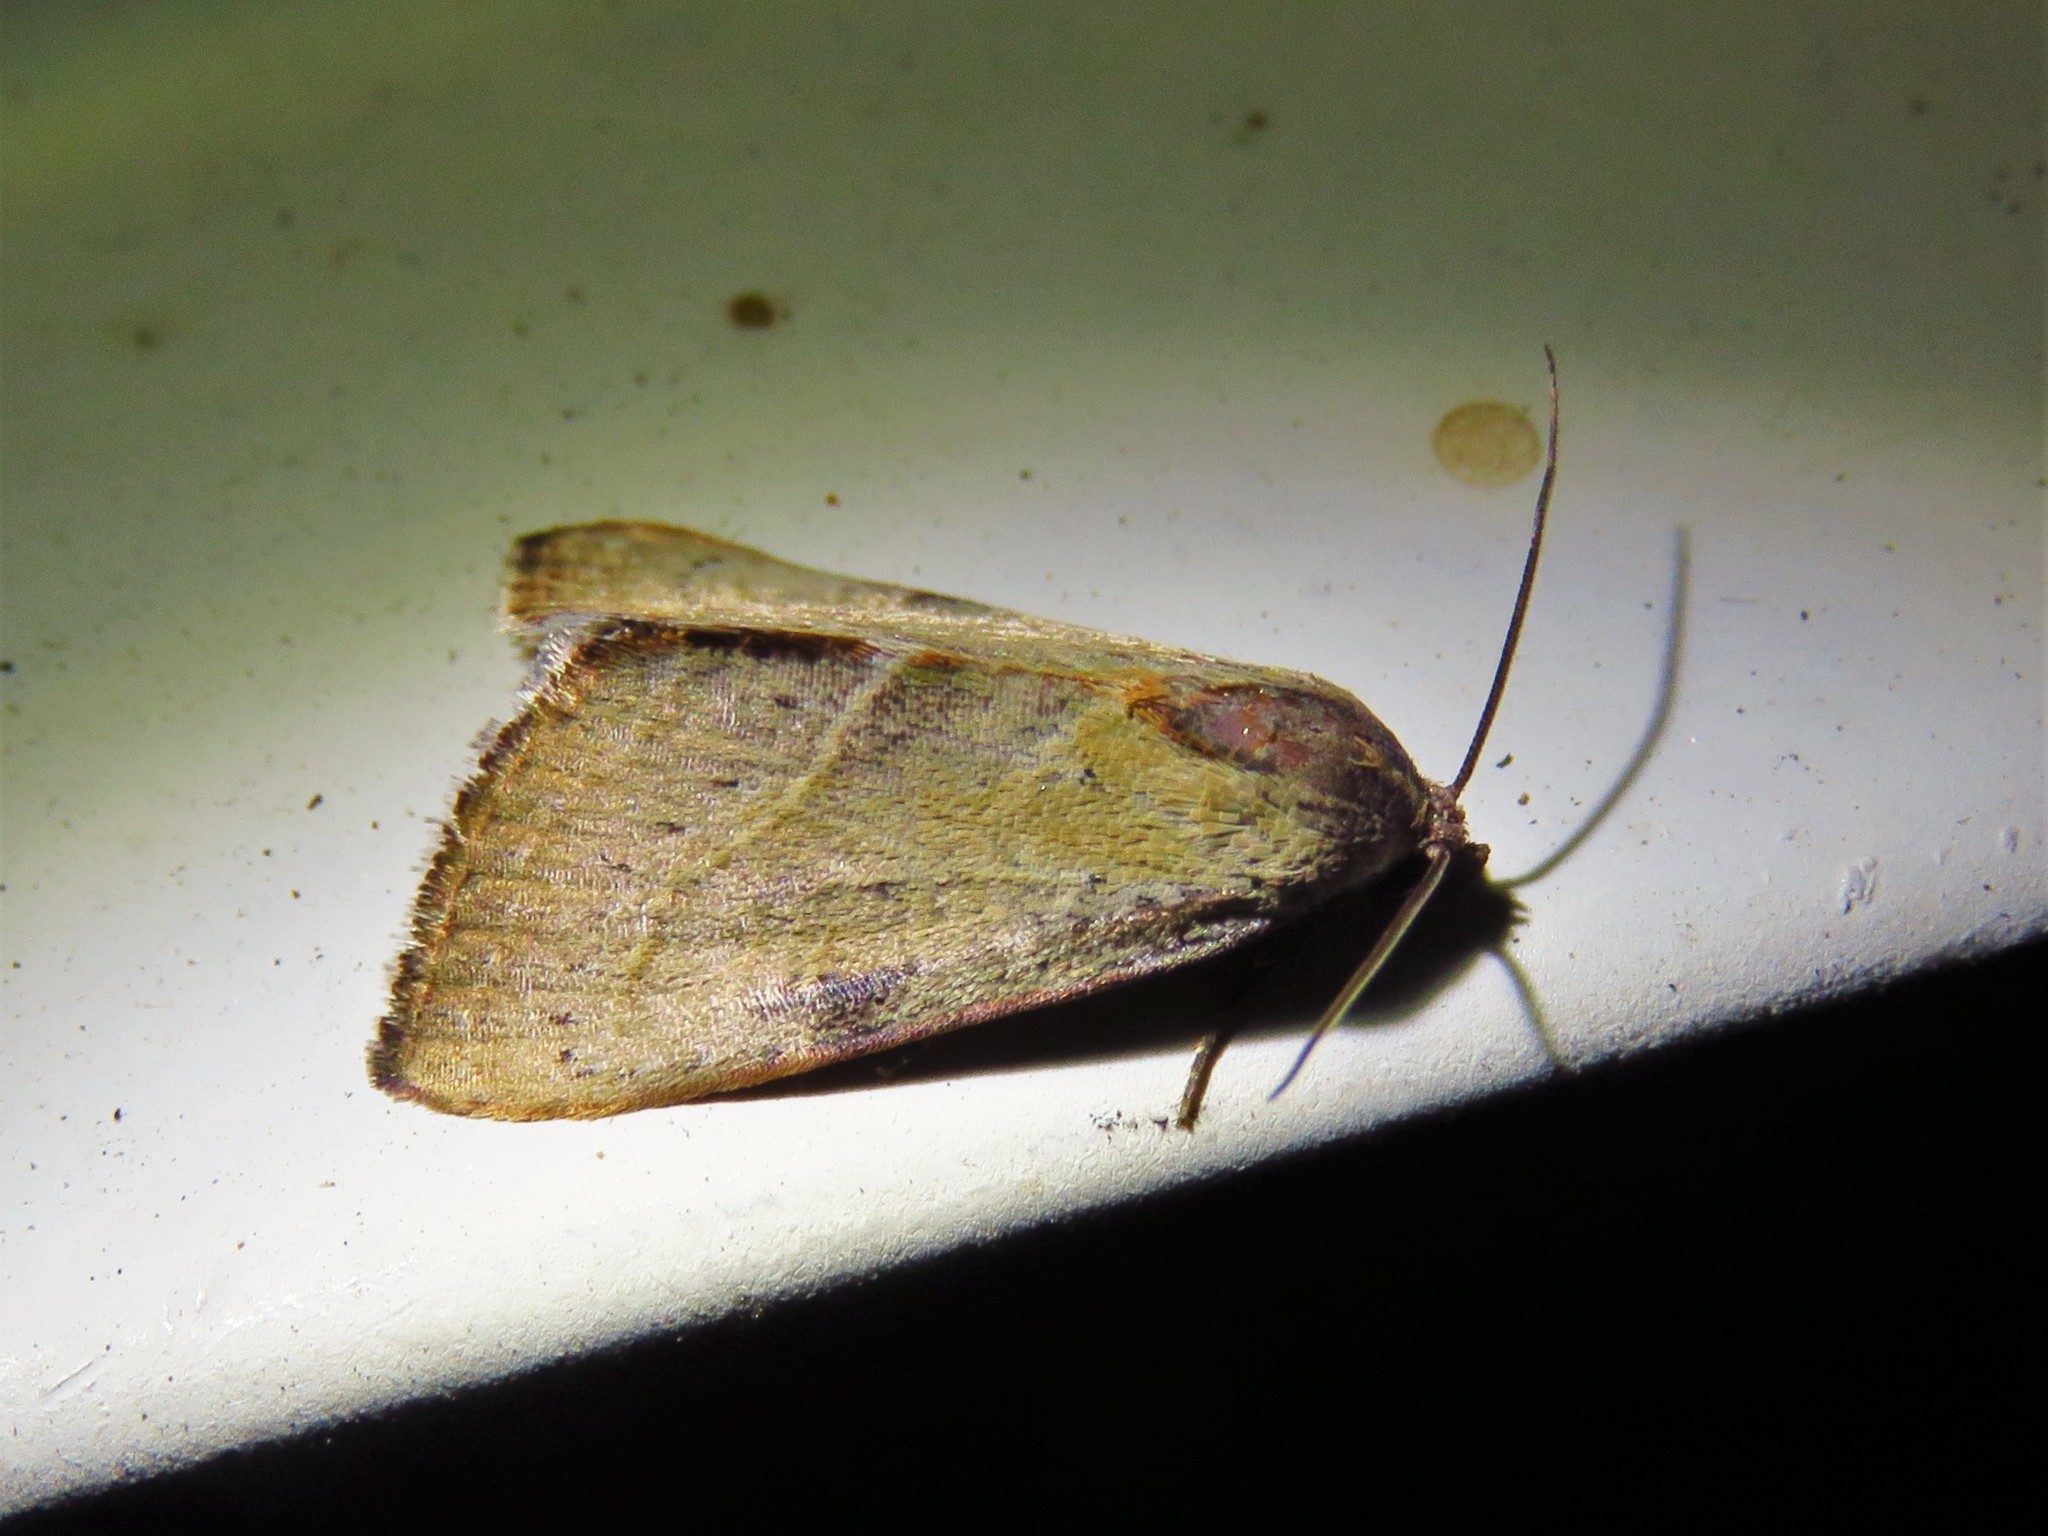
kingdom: Animalia
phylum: Arthropoda
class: Insecta
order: Lepidoptera
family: Noctuidae
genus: Galgula
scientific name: Galgula partita
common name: Wedgeling
